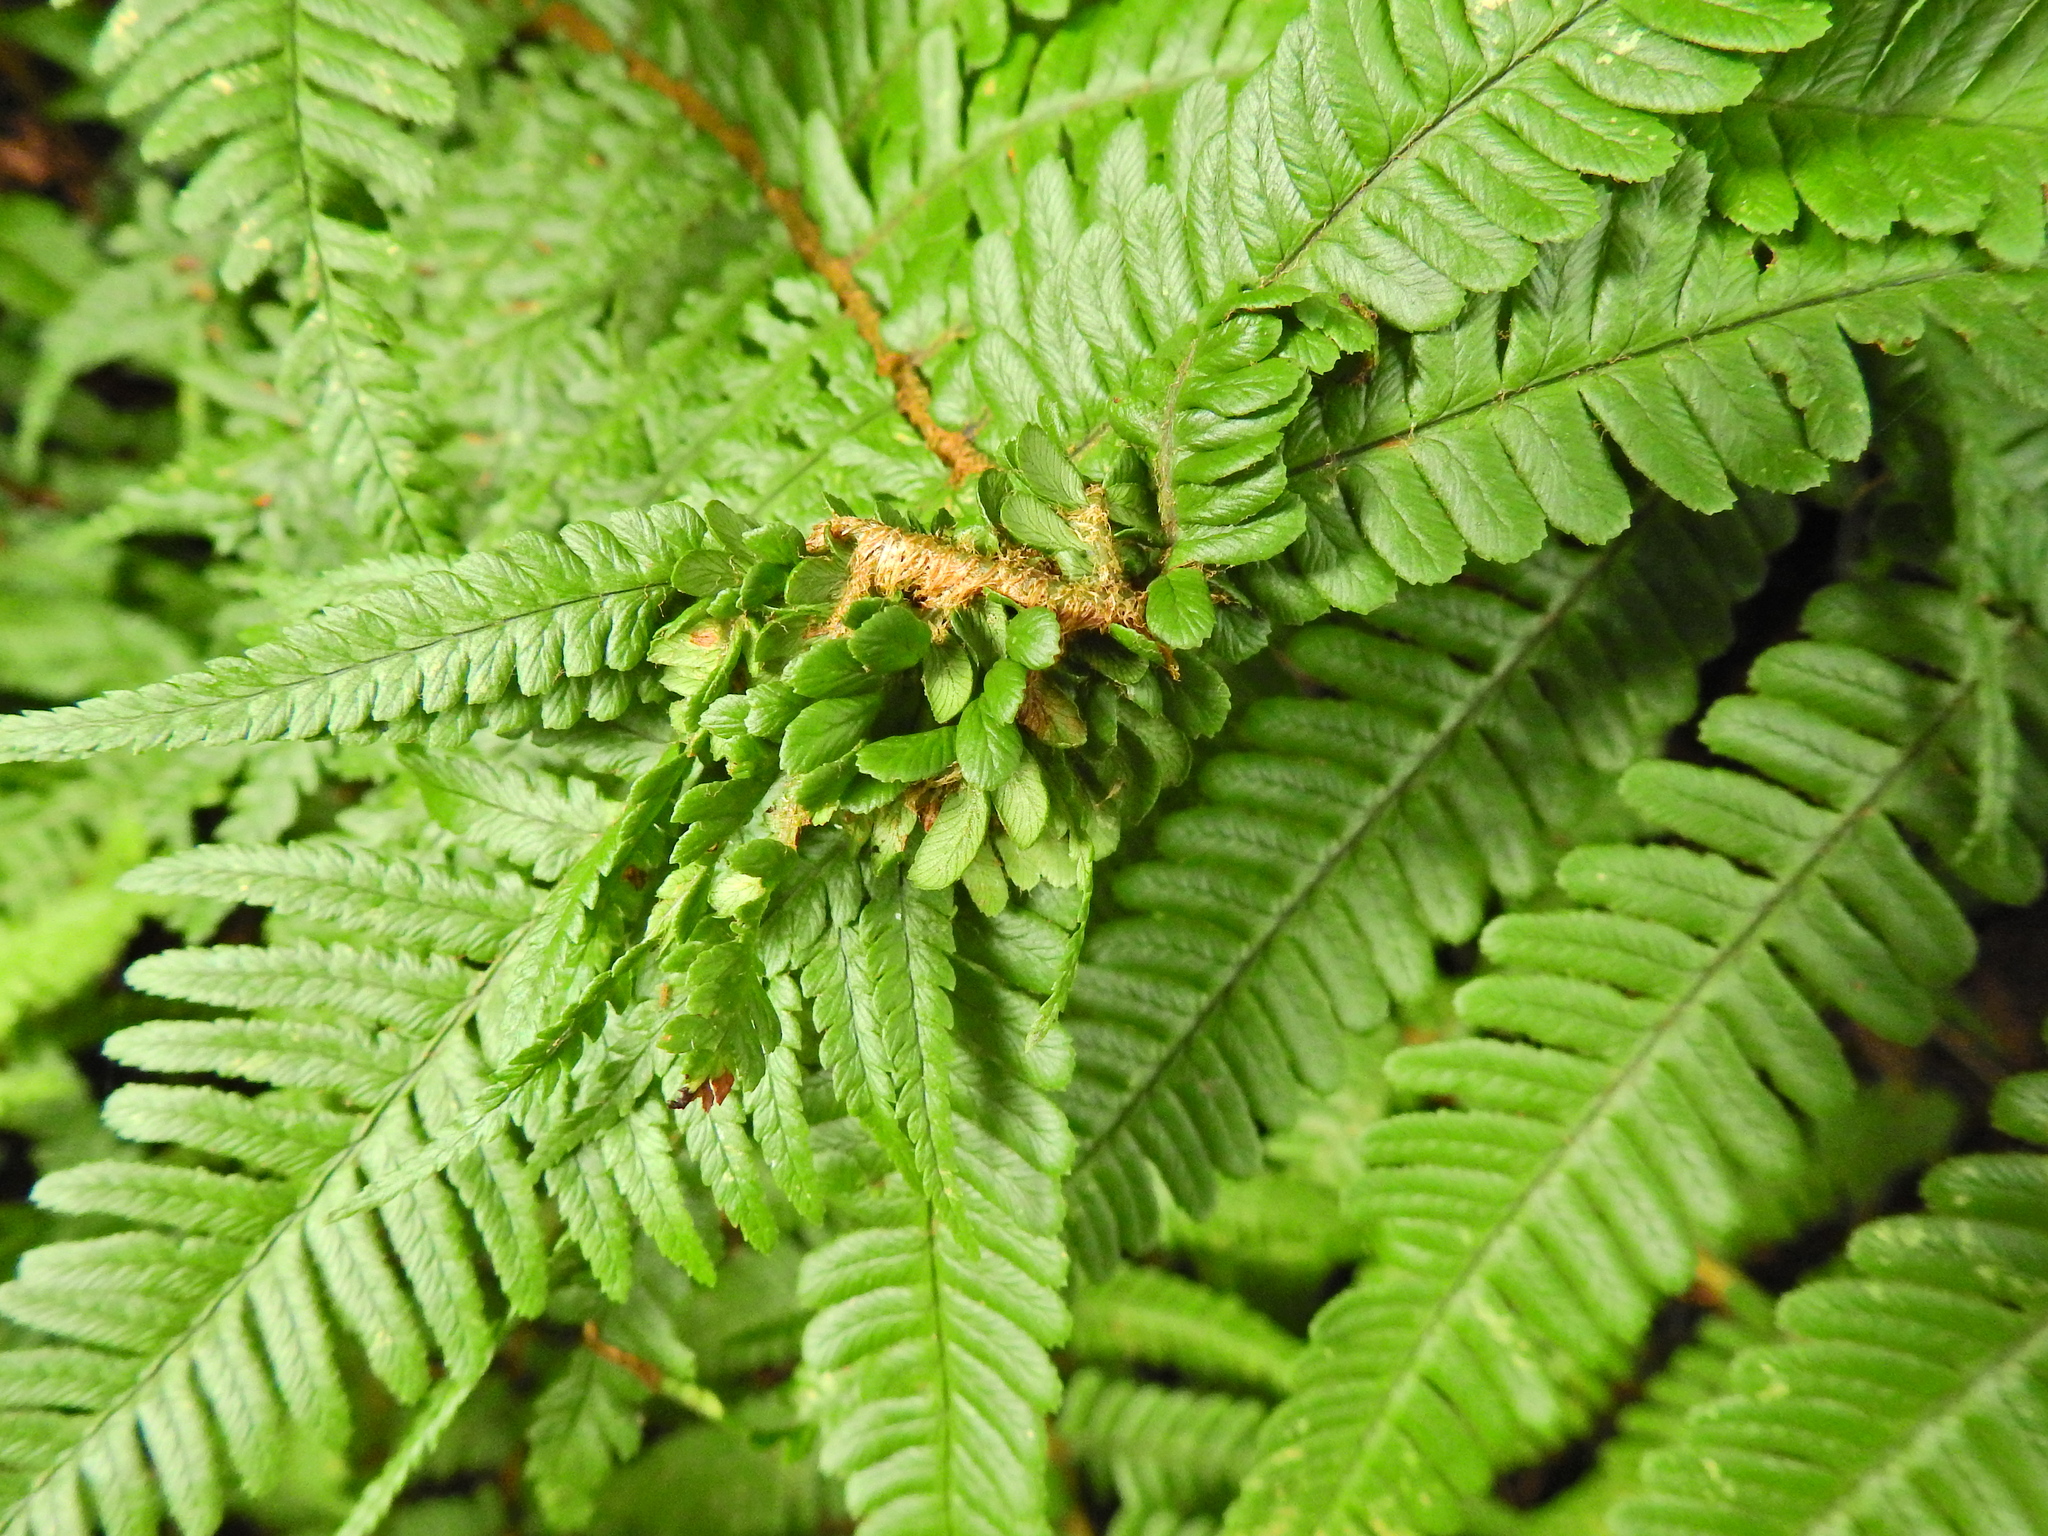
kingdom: Animalia
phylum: Arthropoda
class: Insecta
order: Diptera
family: Anthomyiidae
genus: Chirosia
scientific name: Chirosia betuleti
